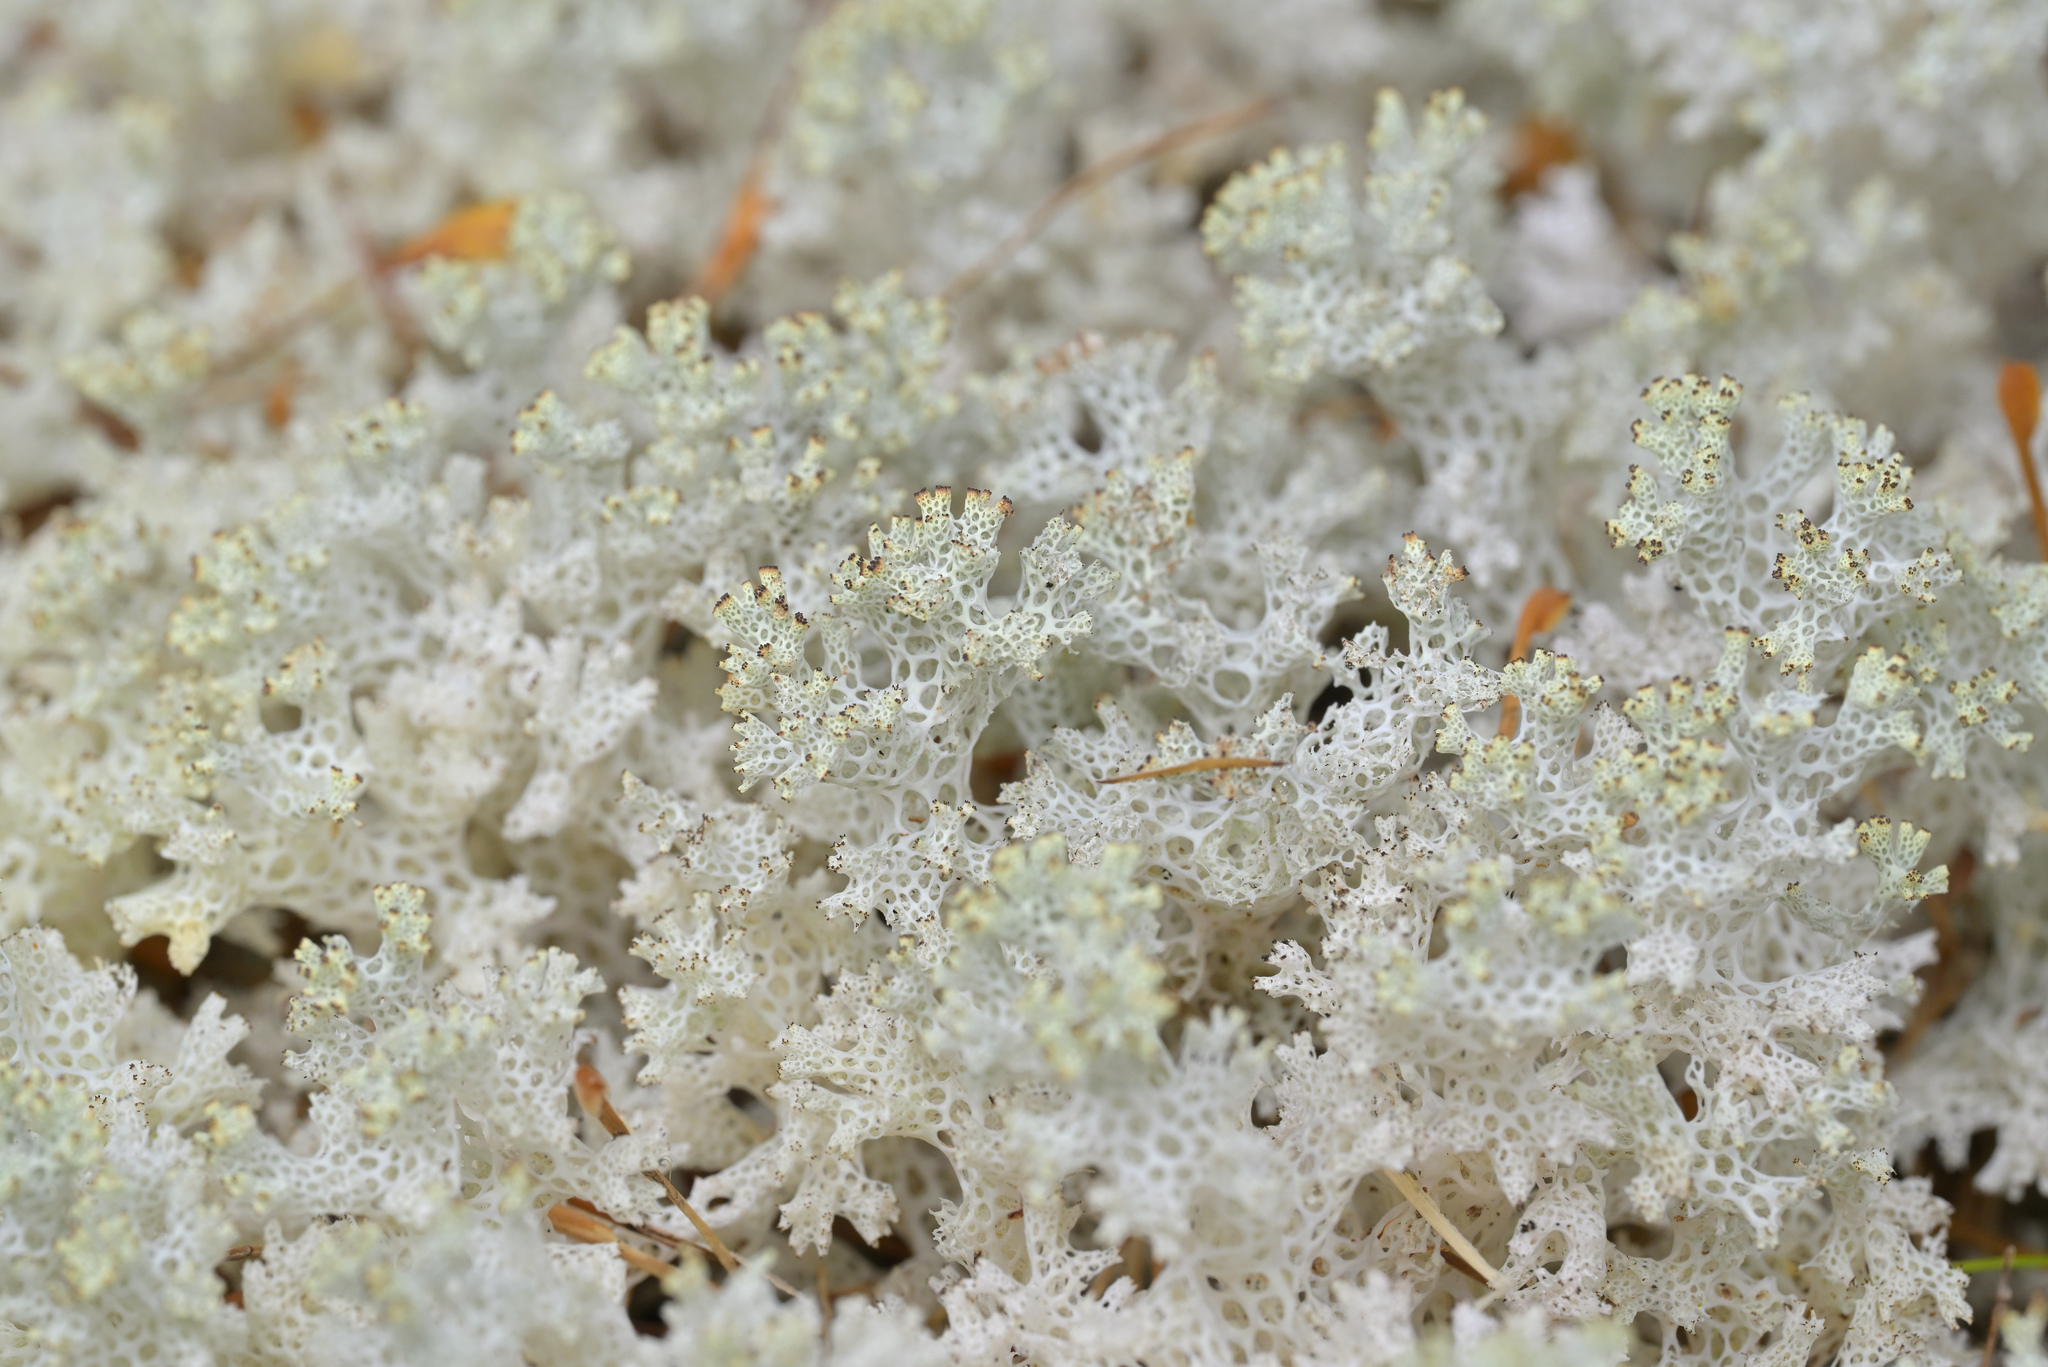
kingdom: Fungi
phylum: Ascomycota
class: Lecanoromycetes
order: Lecanorales
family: Cladoniaceae
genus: Pulchrocladia
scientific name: Pulchrocladia retipora
